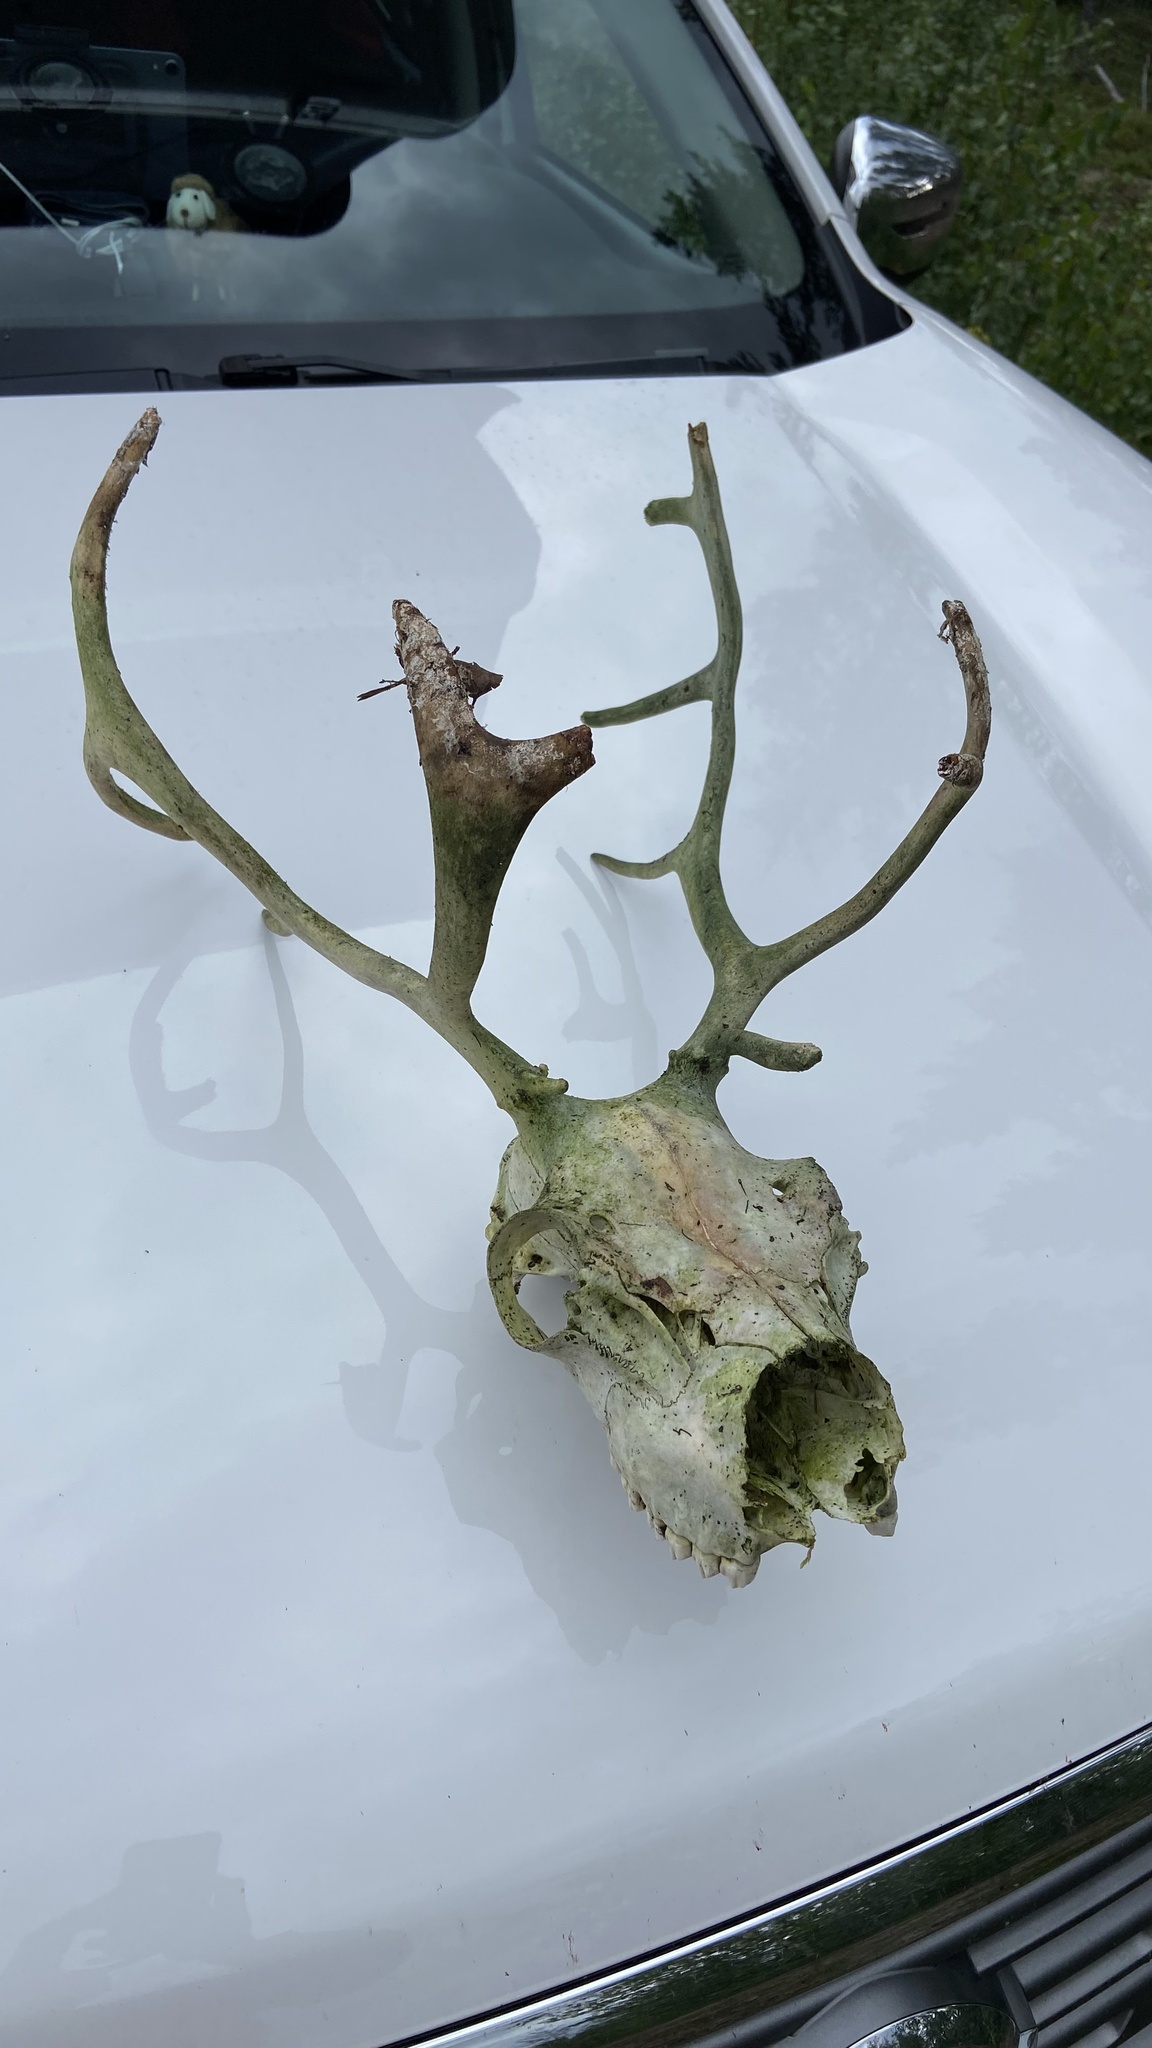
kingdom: Animalia
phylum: Chordata
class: Mammalia
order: Artiodactyla
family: Cervidae
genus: Rangifer
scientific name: Rangifer tarandus
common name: Reindeer
